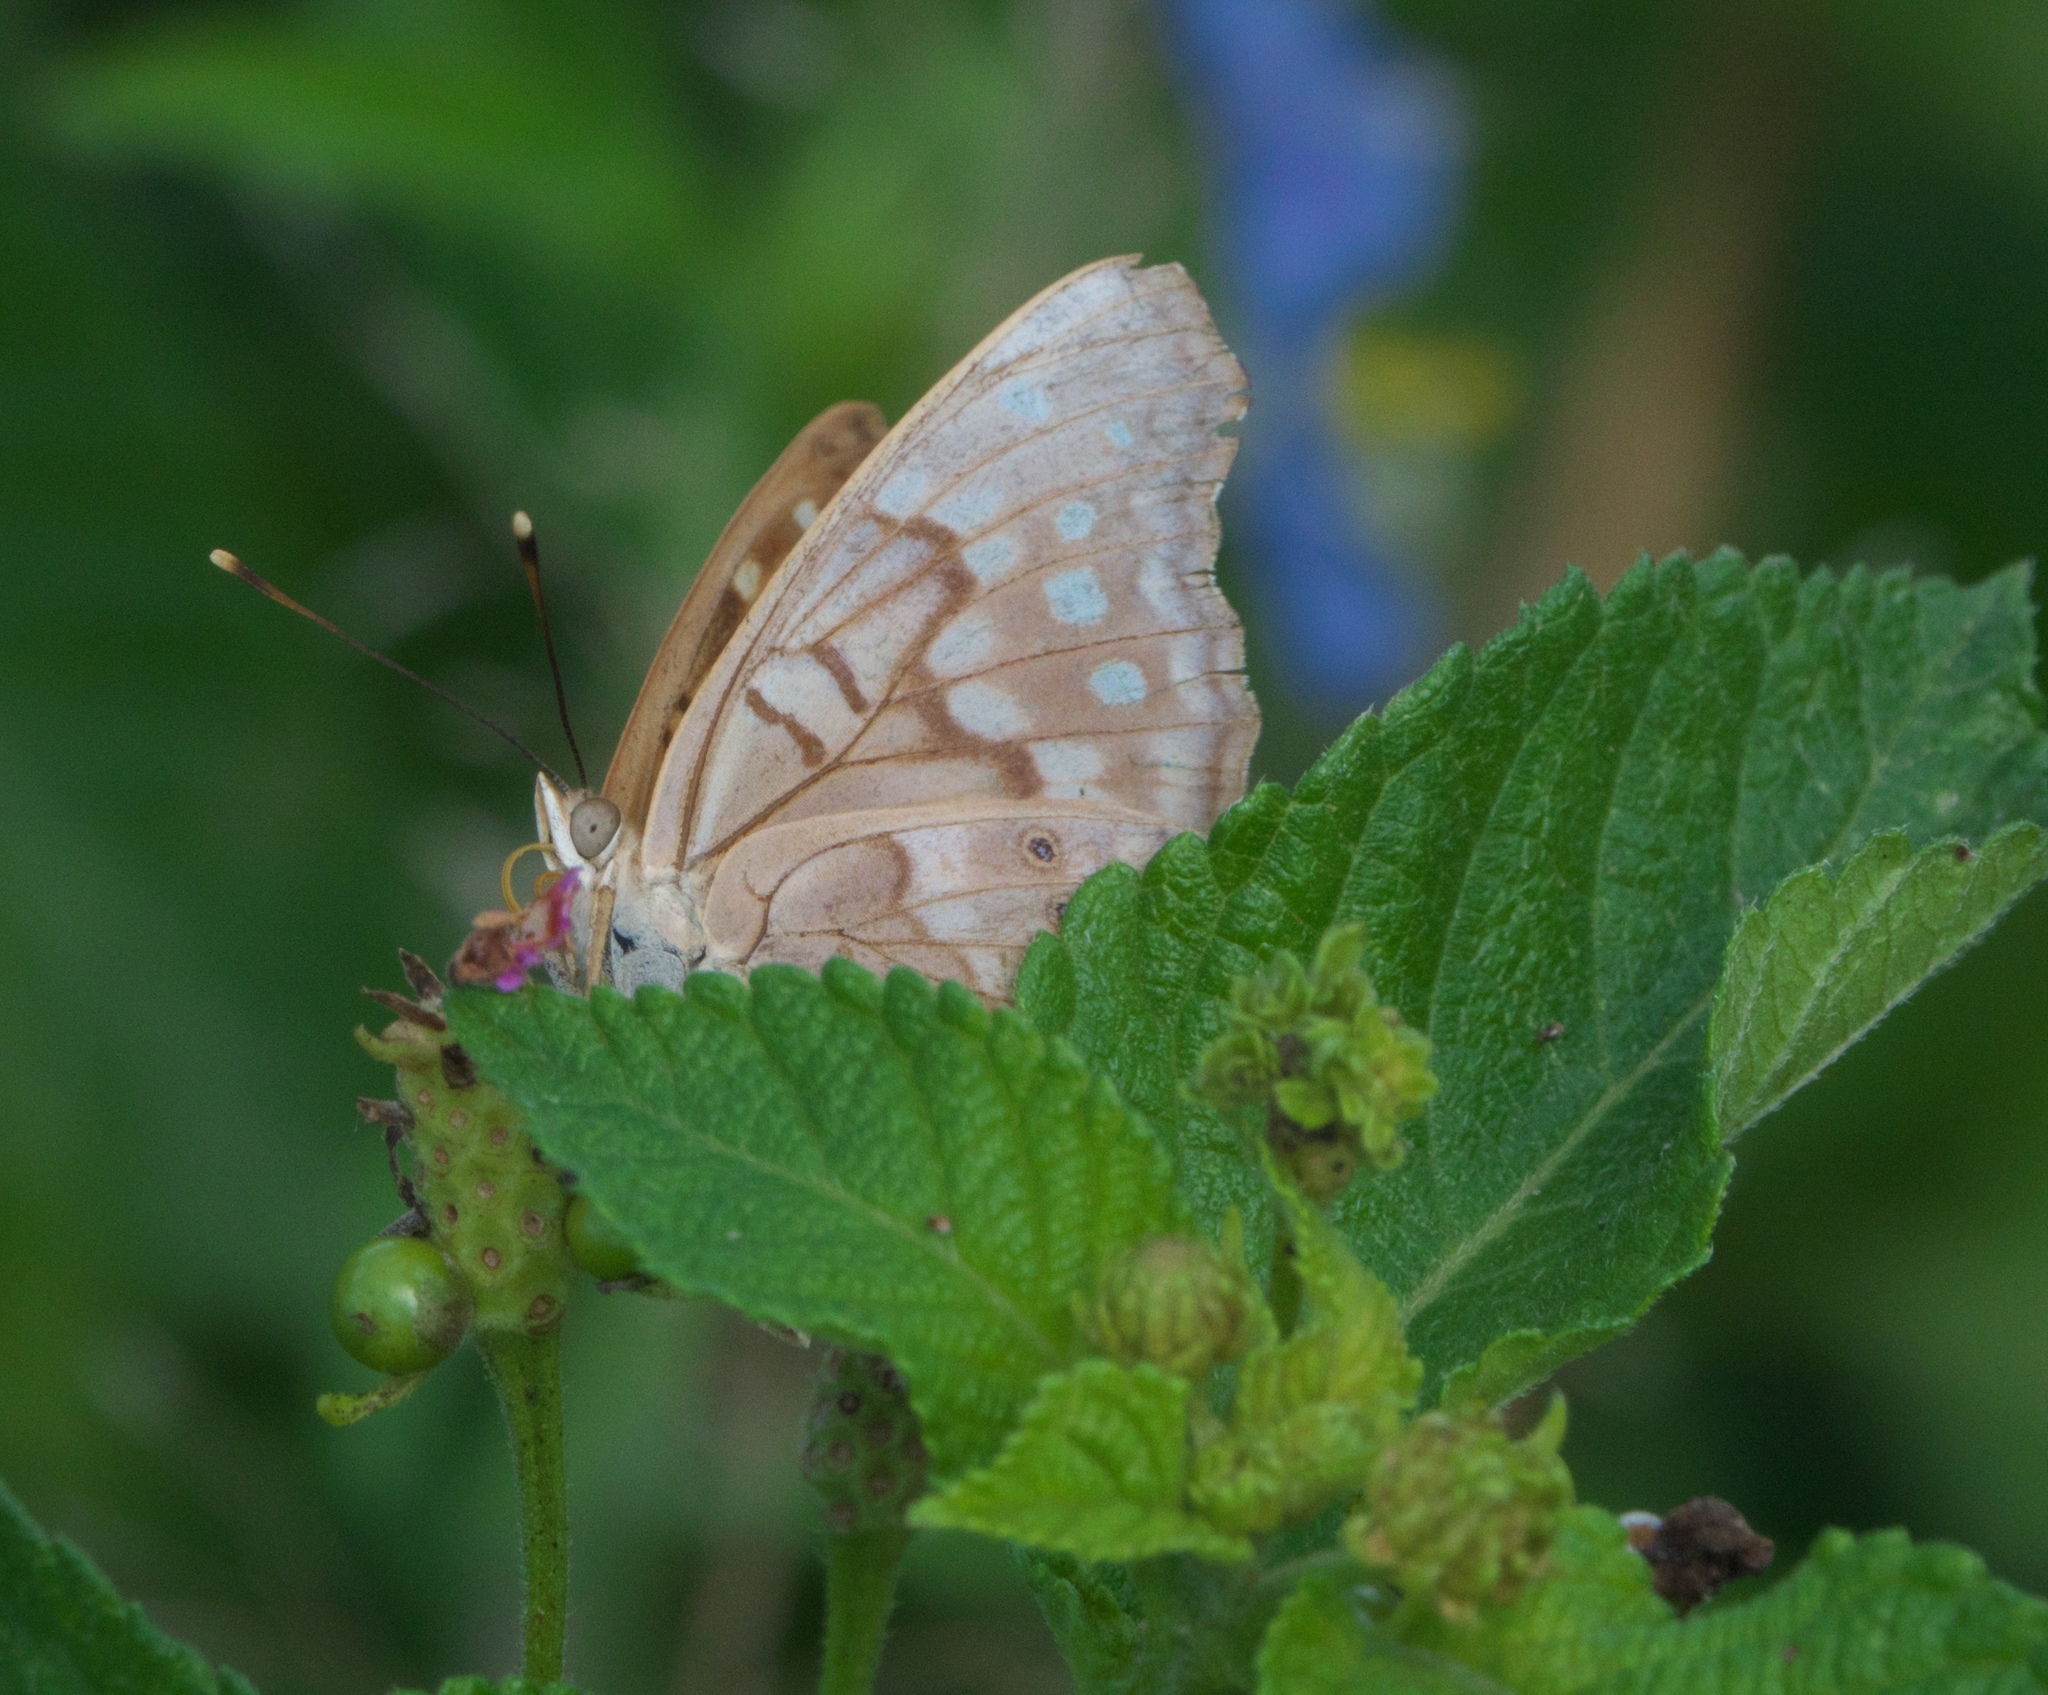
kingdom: Animalia
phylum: Arthropoda
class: Insecta
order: Lepidoptera
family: Nymphalidae
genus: Asterocampa
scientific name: Asterocampa clyton
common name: Tawny emperor
